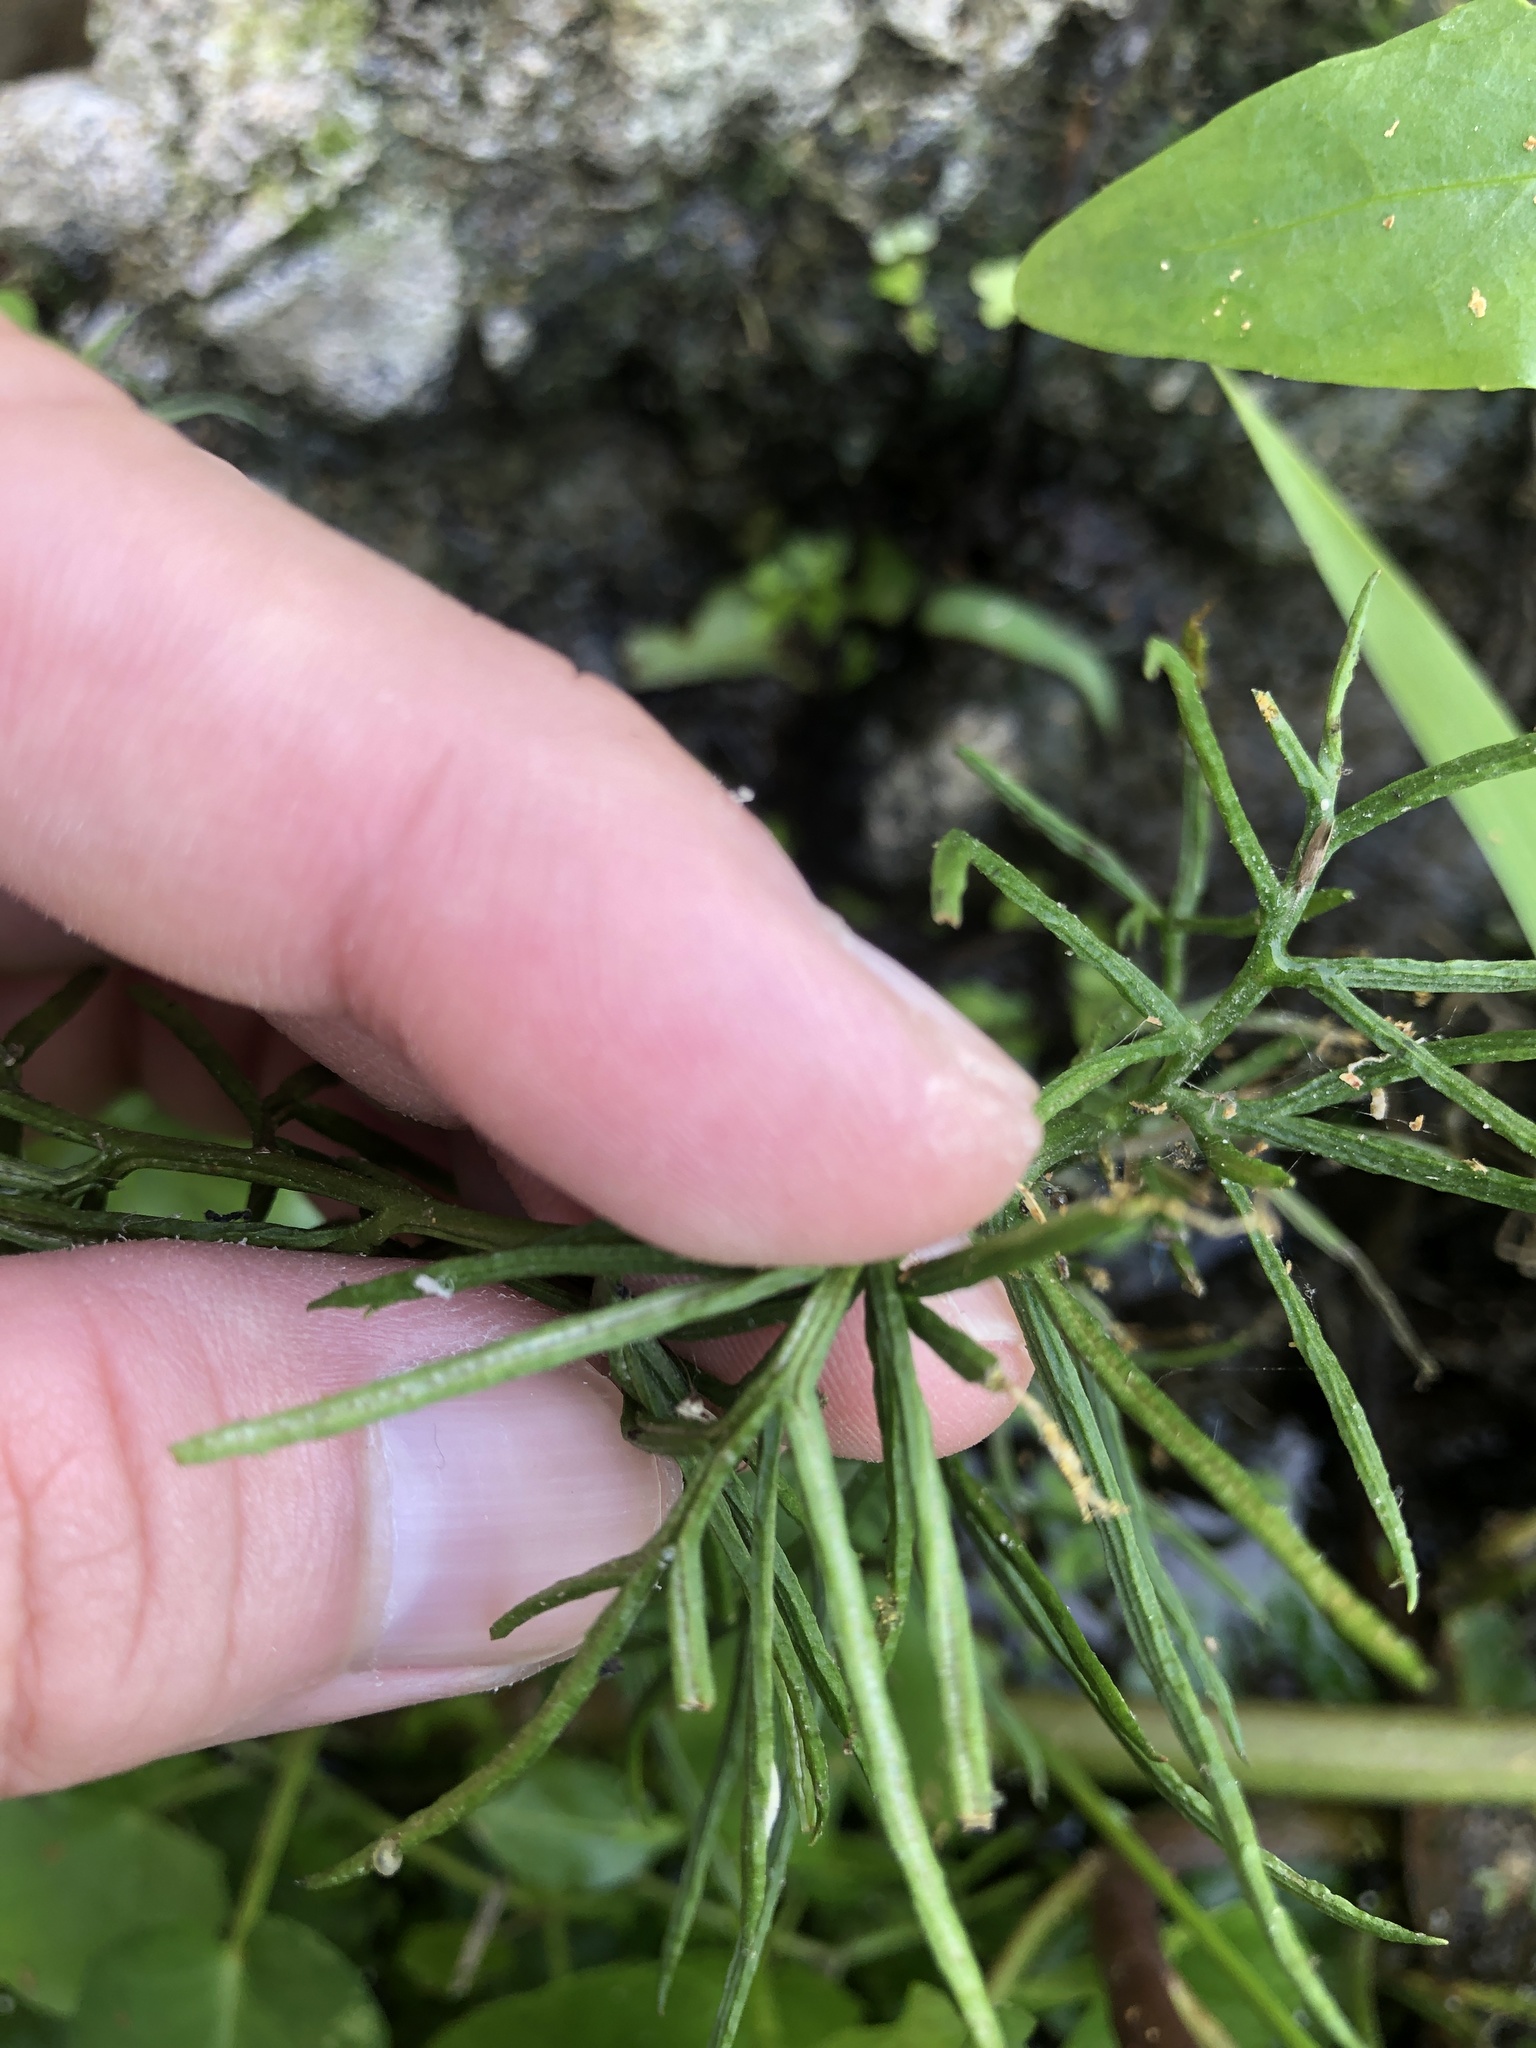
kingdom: Plantae
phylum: Tracheophyta
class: Polypodiopsida
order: Polypodiales
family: Pteridaceae
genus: Ceratopteris
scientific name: Ceratopteris thalictroides
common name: Water fern
